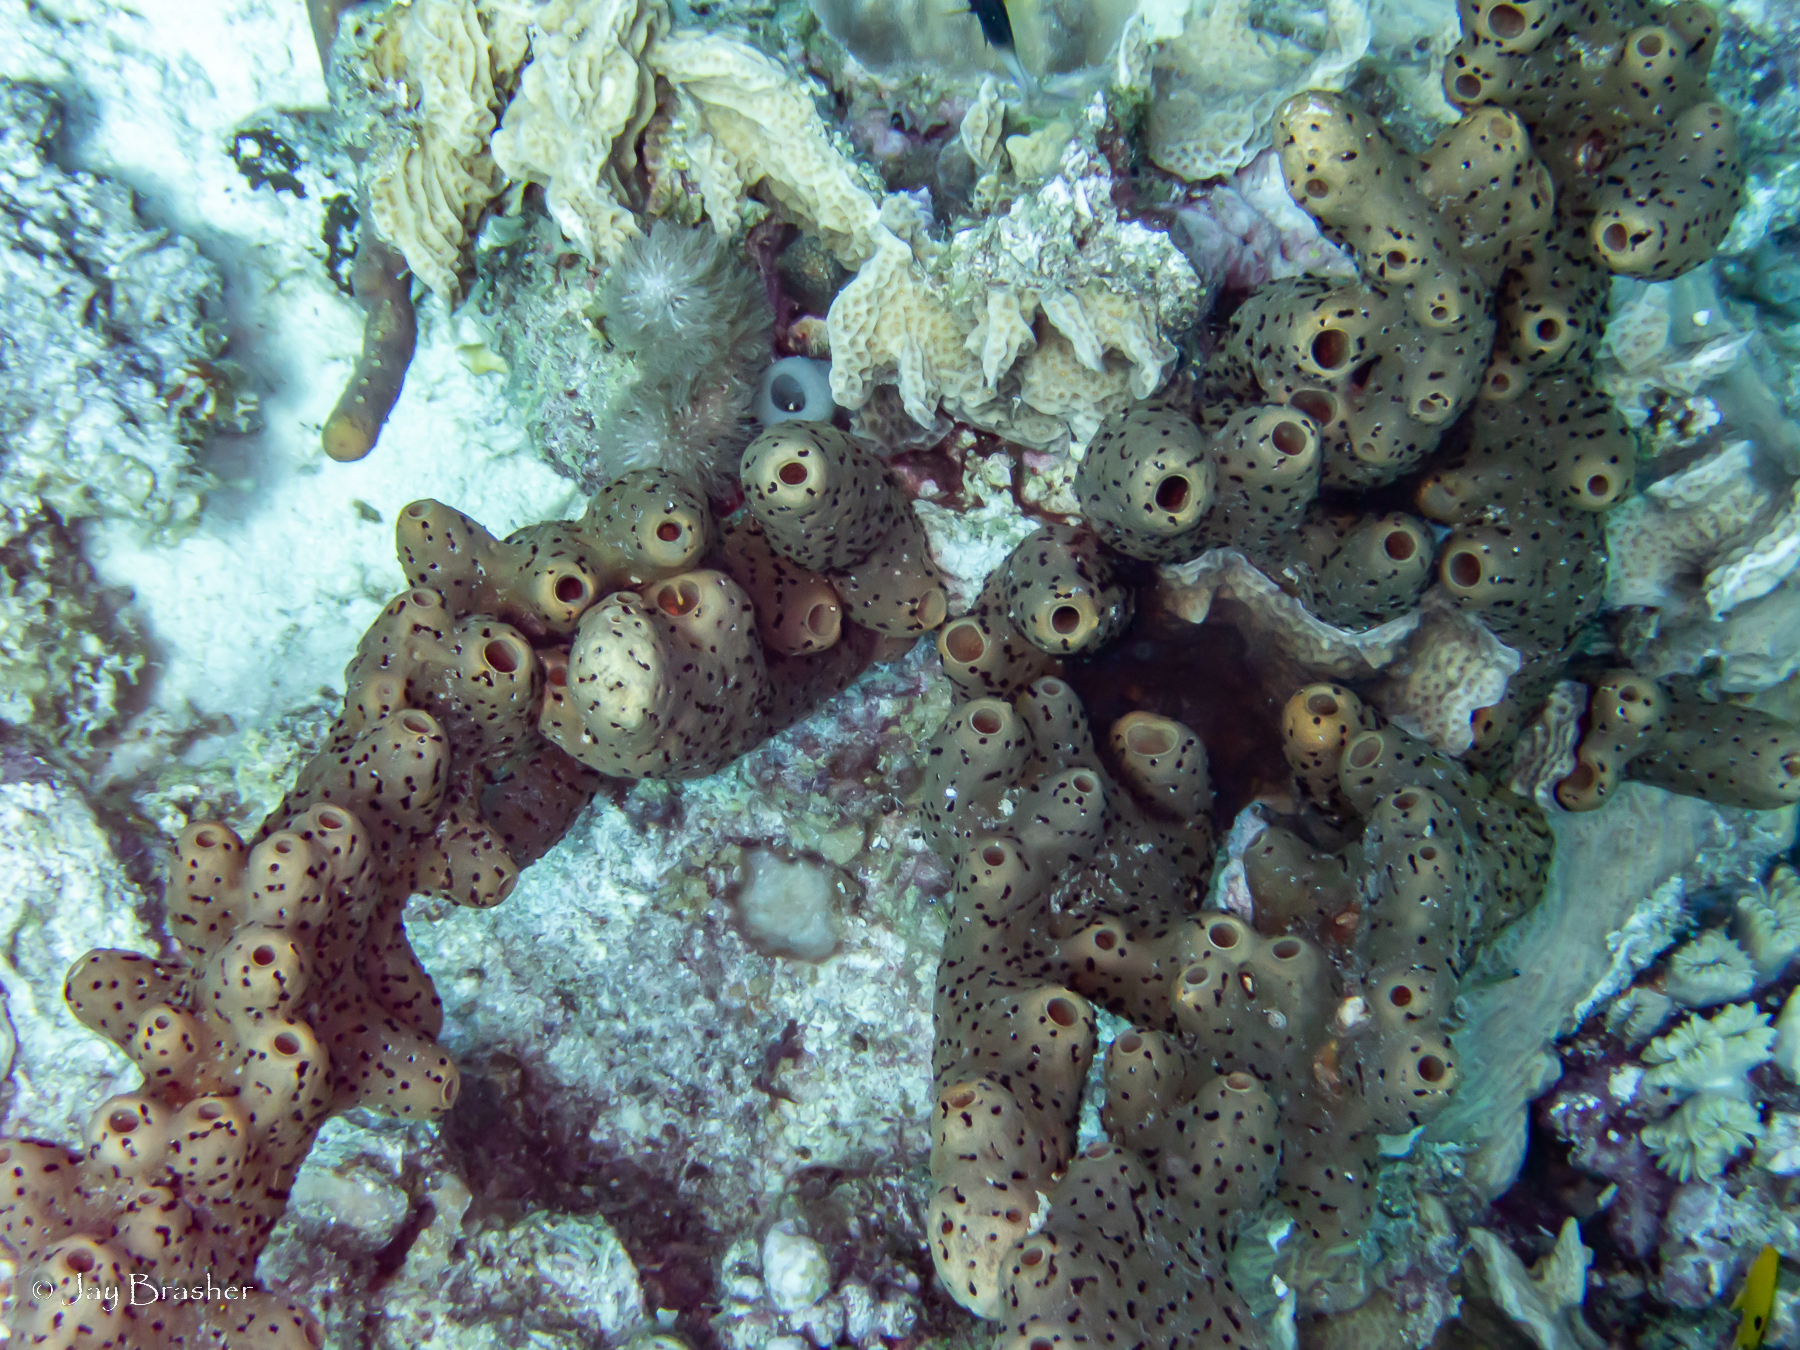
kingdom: Animalia
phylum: Porifera
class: Demospongiae
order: Agelasida
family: Agelasidae
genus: Agelas
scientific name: Agelas conifera
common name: Brown tube sponge
